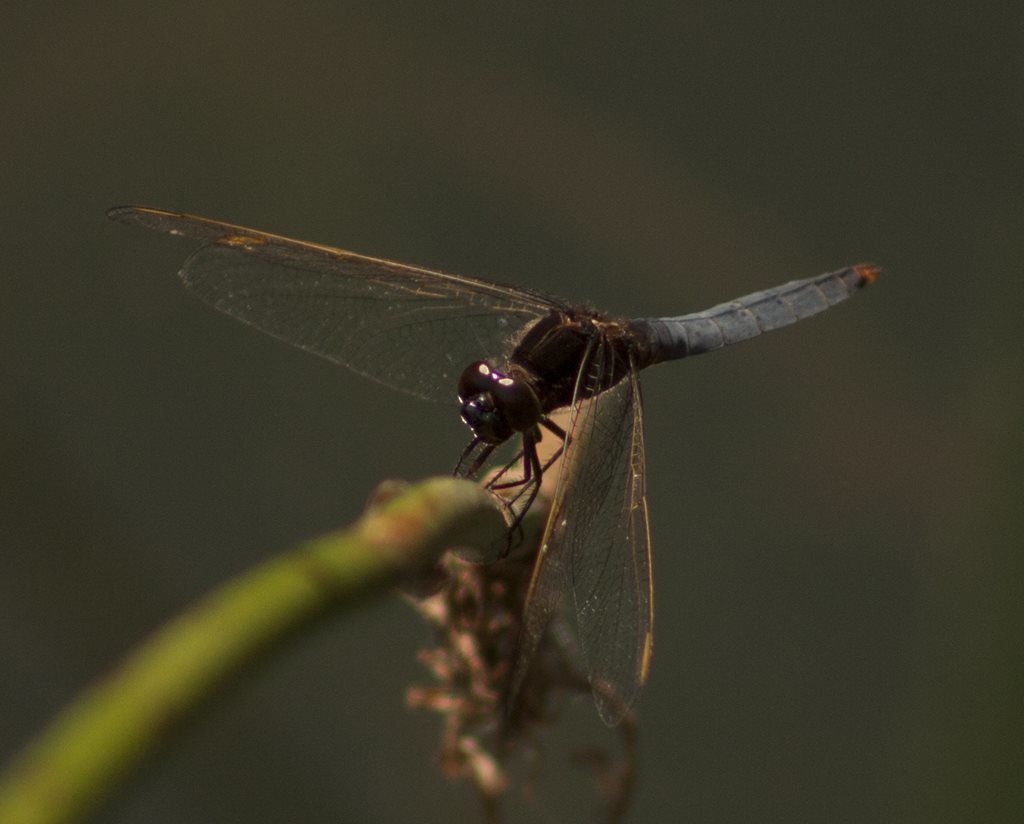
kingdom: Animalia
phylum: Arthropoda
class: Insecta
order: Odonata
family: Libellulidae
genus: Crocothemis
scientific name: Crocothemis nigrifrons
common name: Black-headed skimmer
